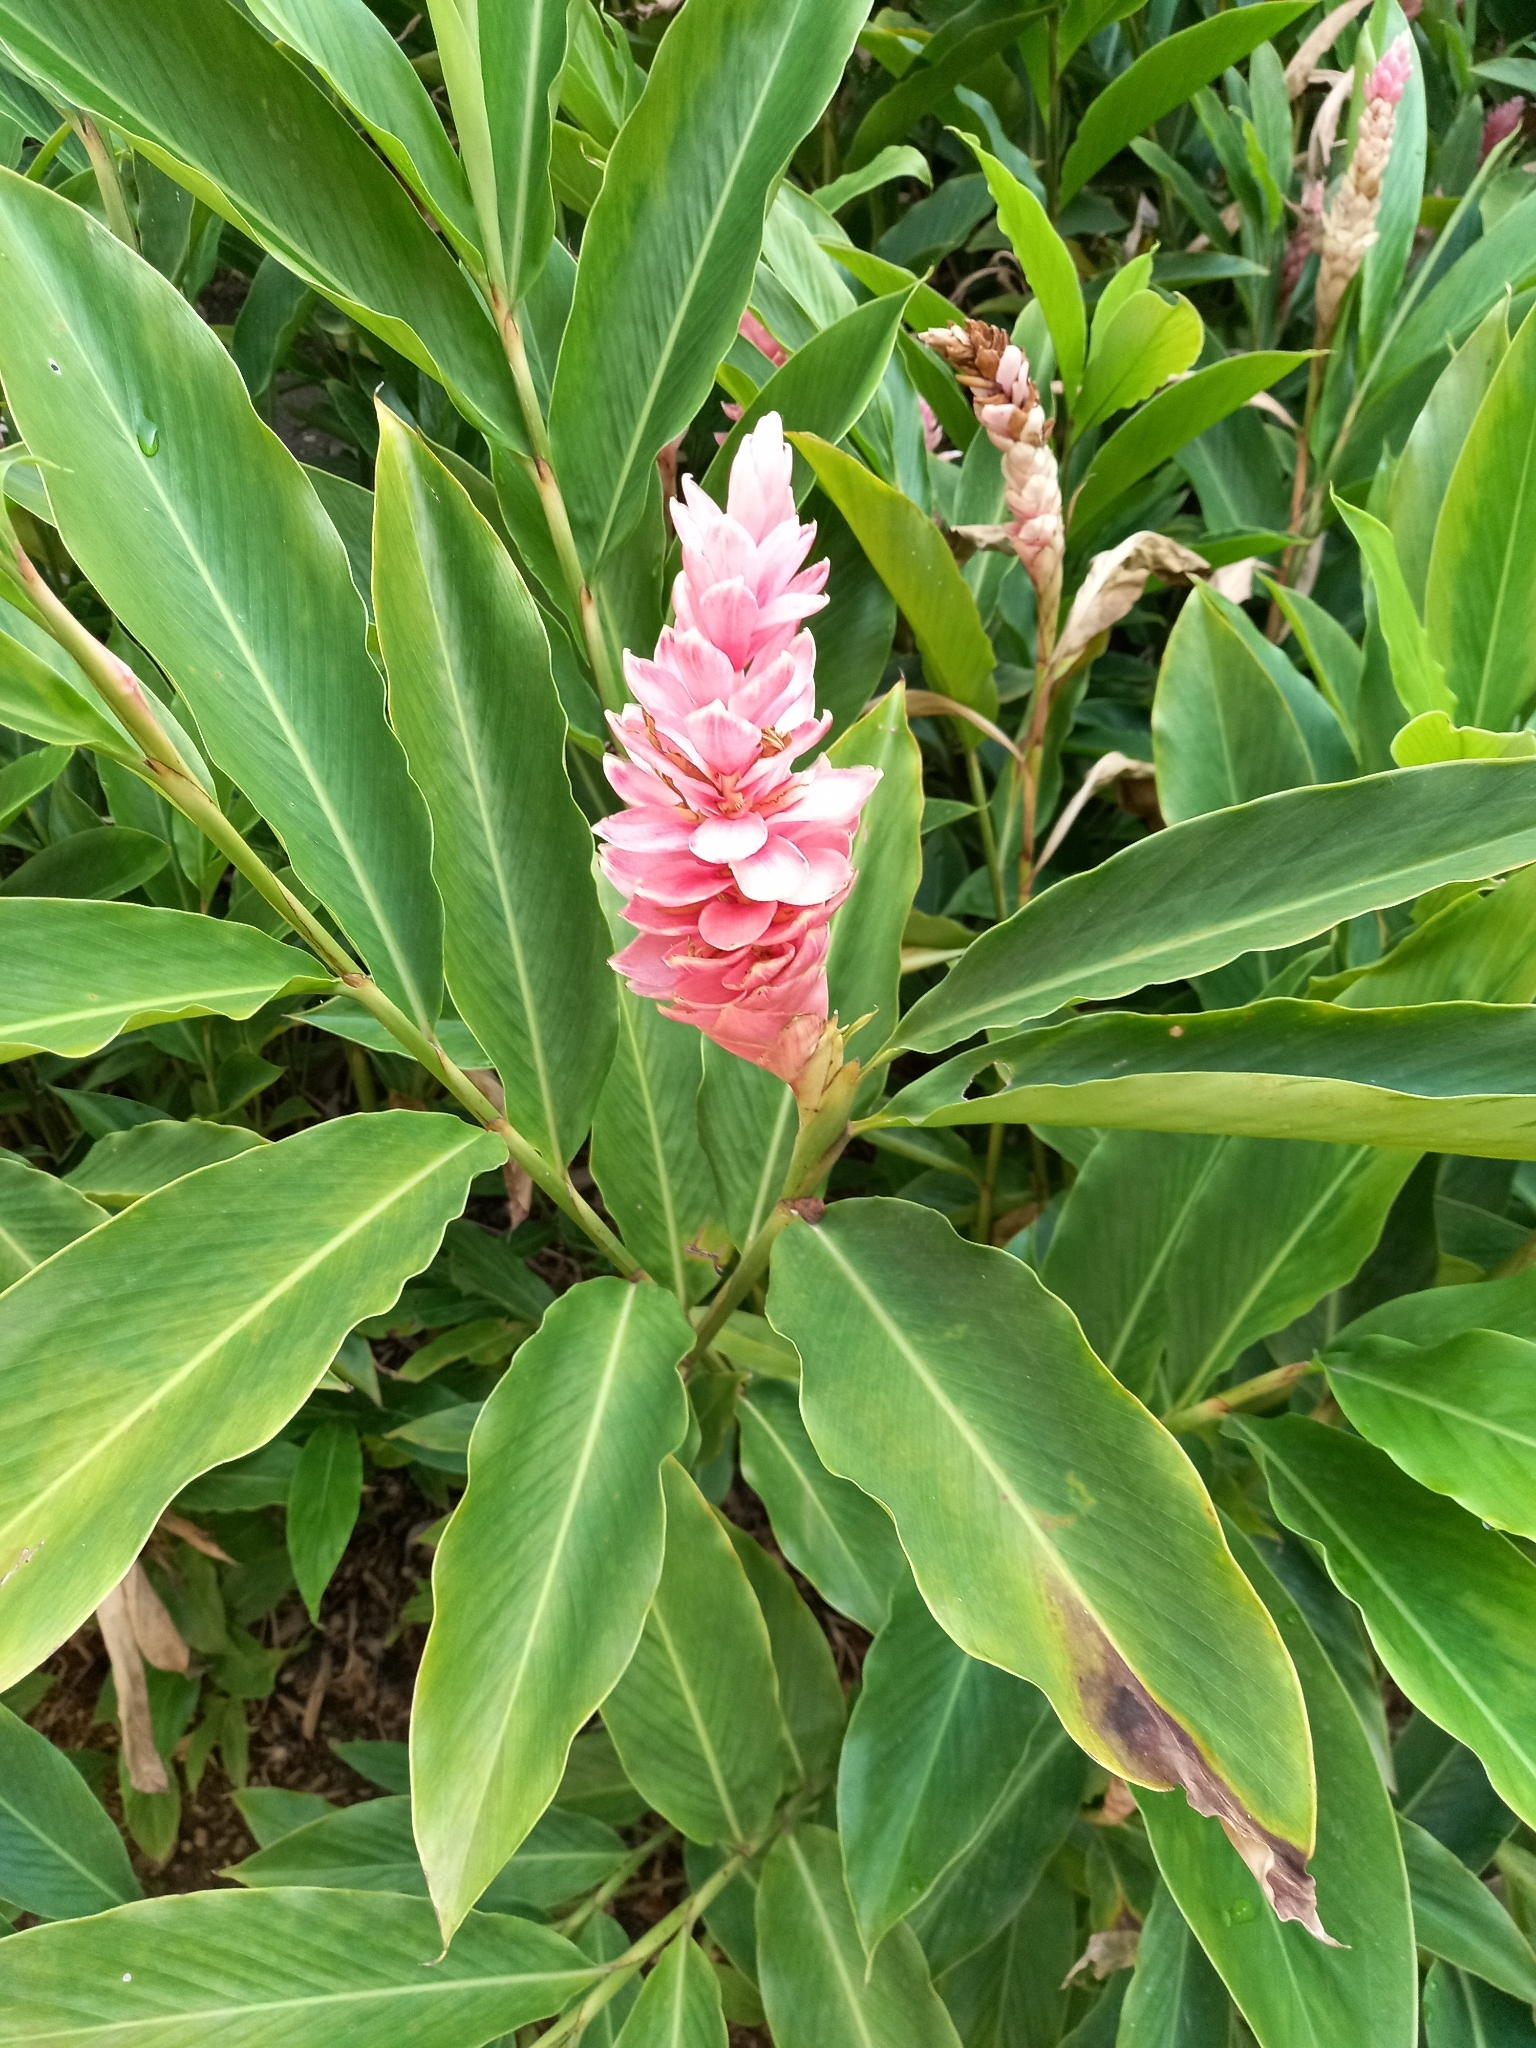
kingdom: Plantae
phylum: Tracheophyta
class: Liliopsida
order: Zingiberales
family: Zingiberaceae
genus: Alpinia
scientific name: Alpinia purpurata
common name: Red ginger
